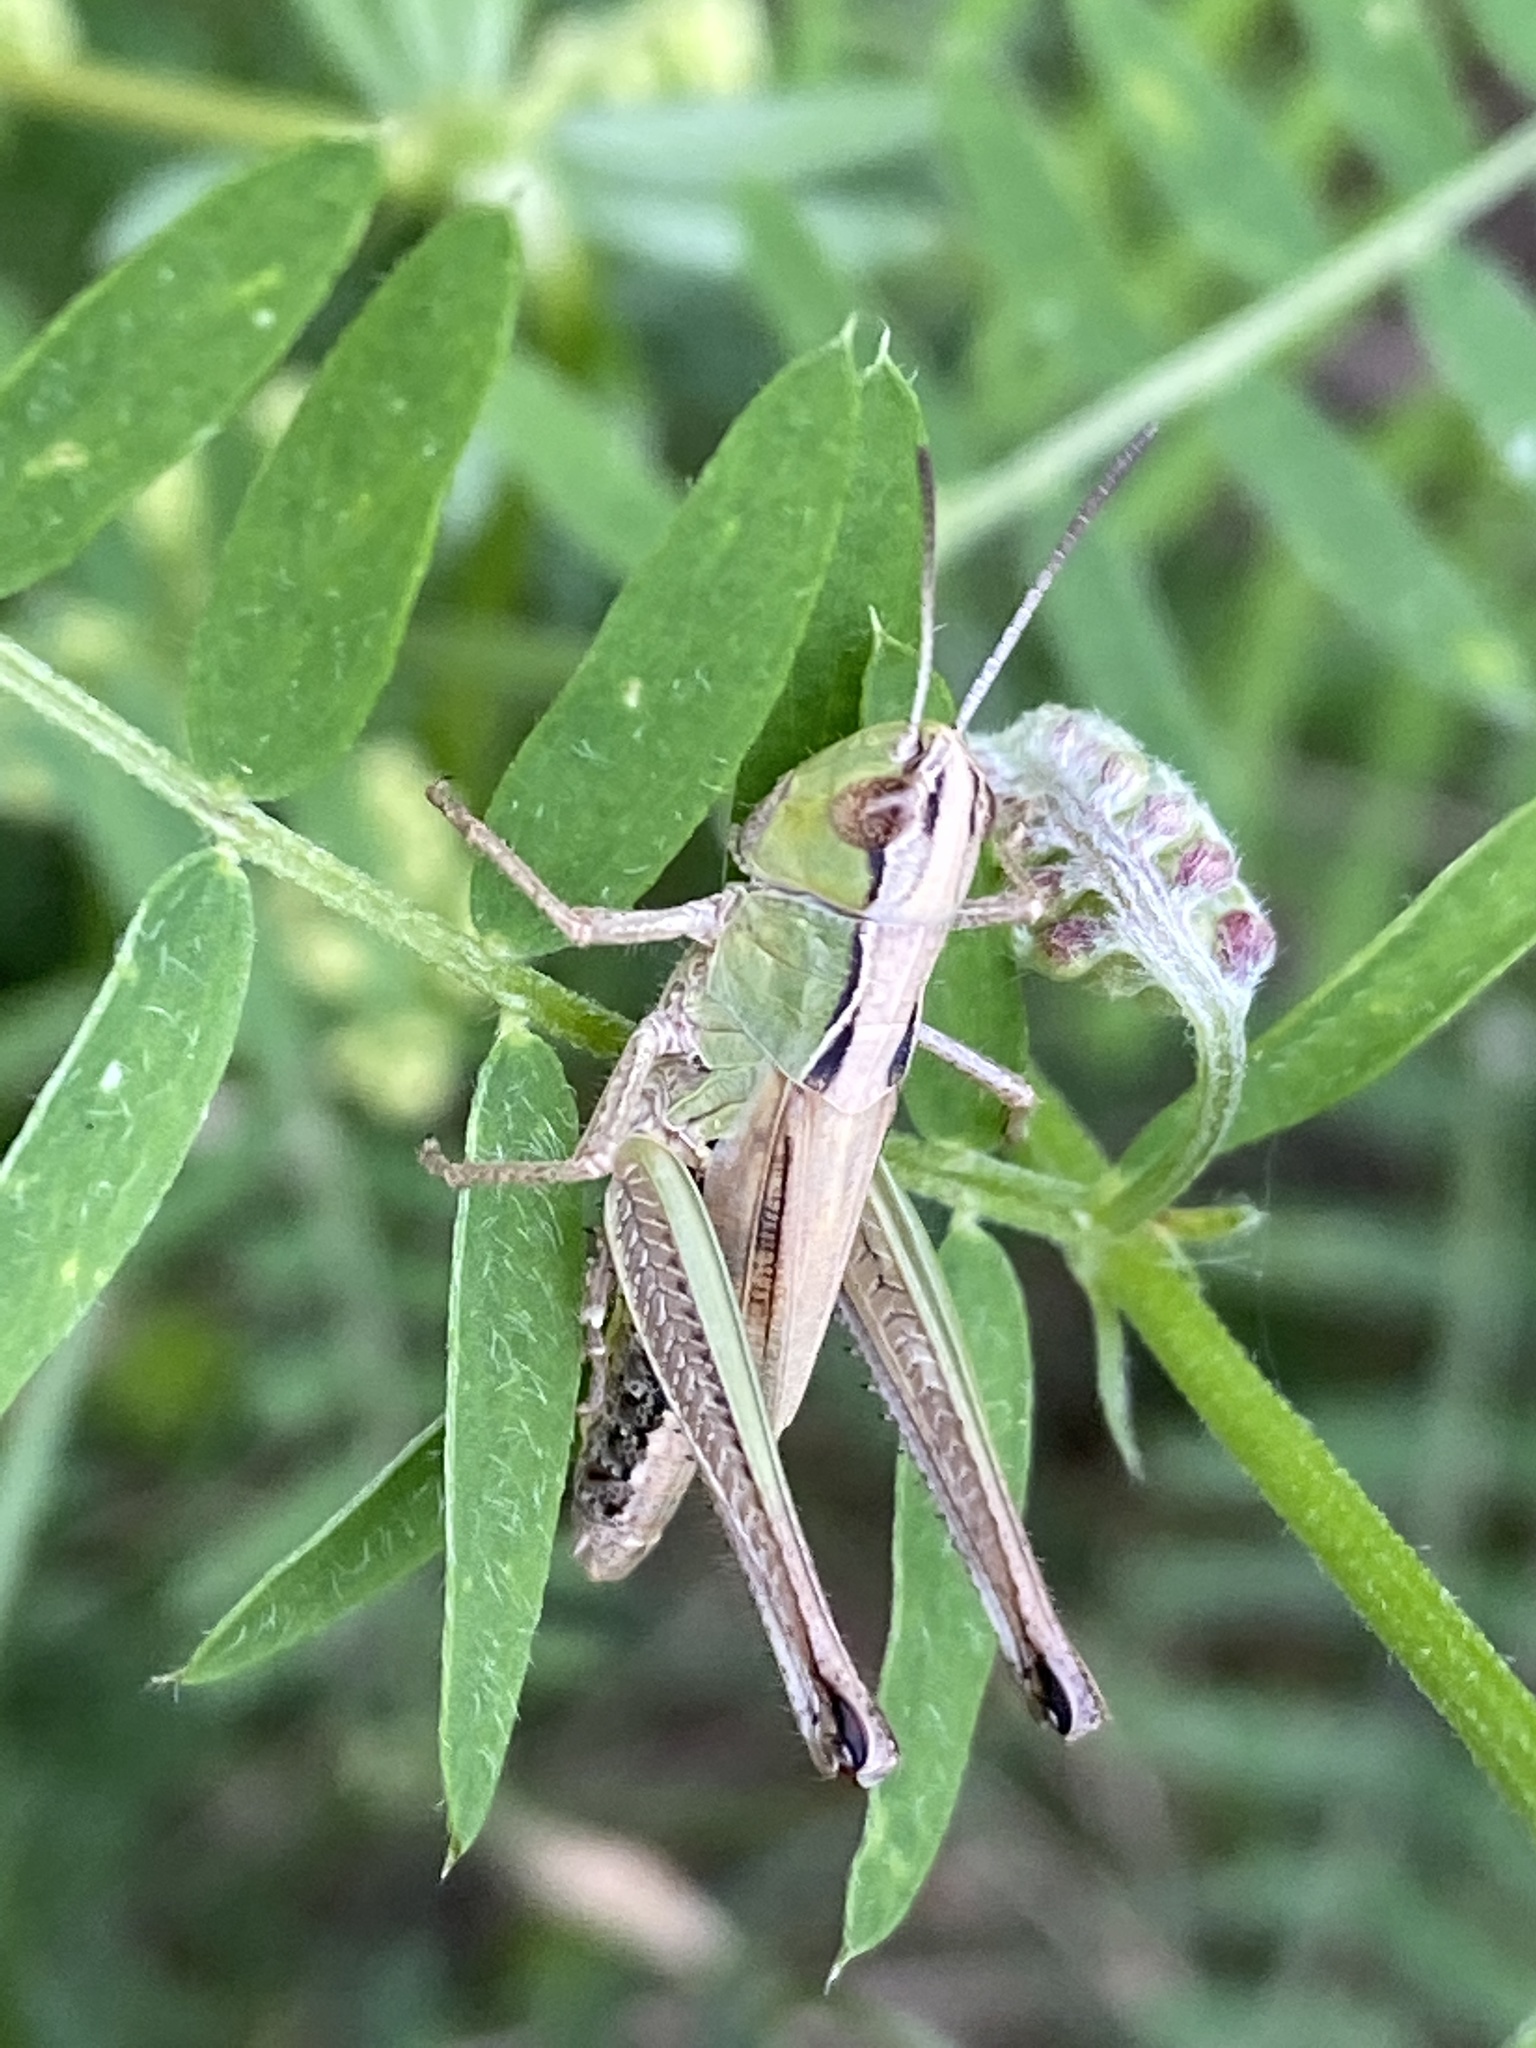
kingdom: Animalia
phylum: Arthropoda
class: Insecta
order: Orthoptera
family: Acrididae
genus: Pseudochorthippus
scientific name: Pseudochorthippus montanus
